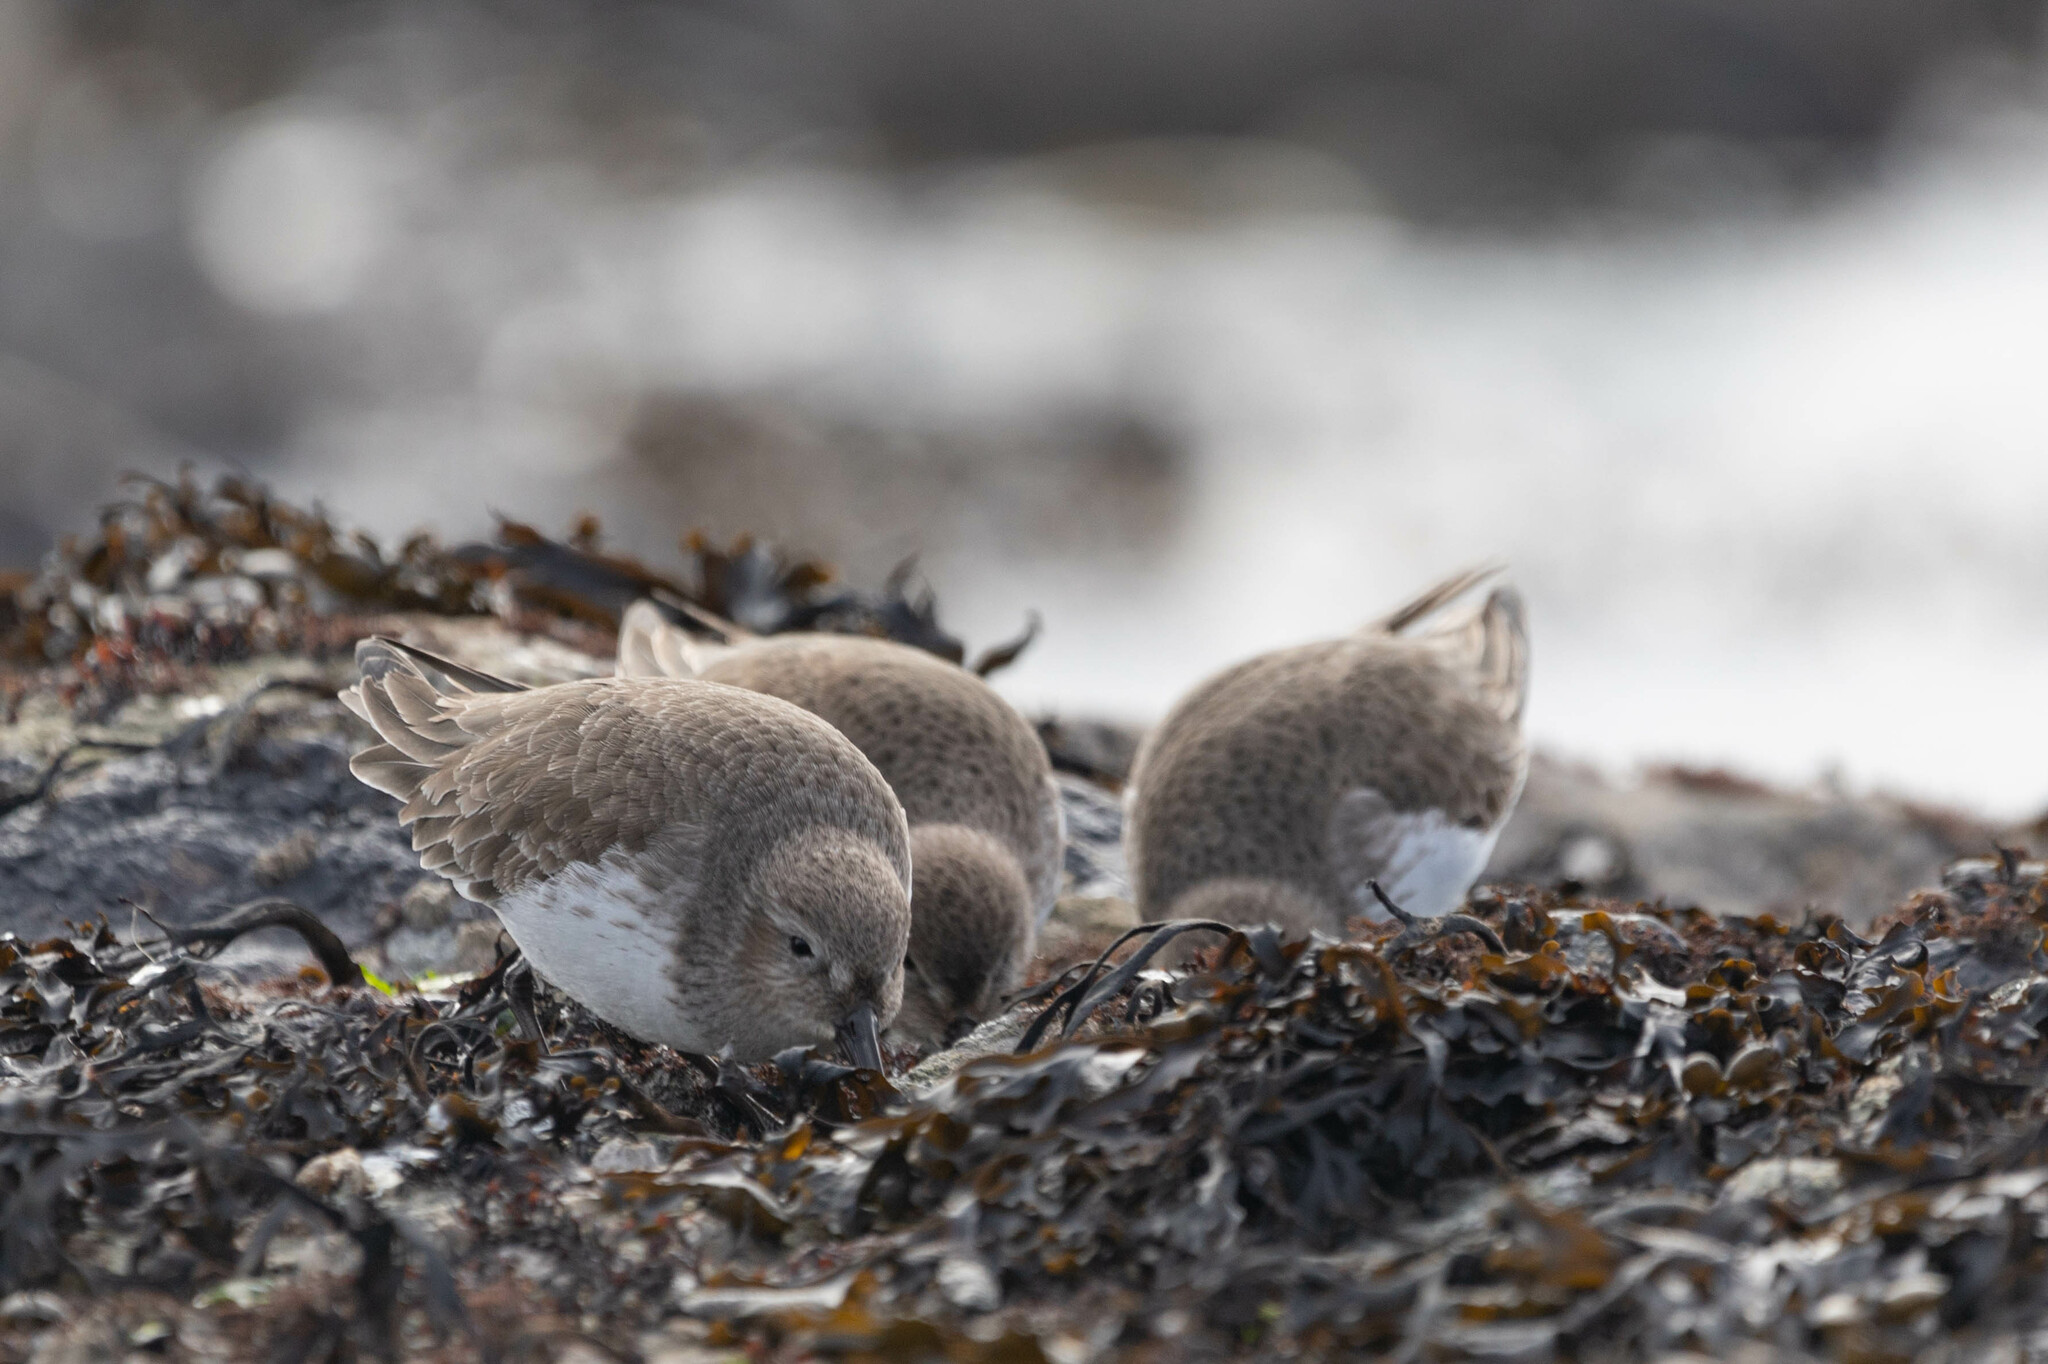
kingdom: Animalia
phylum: Chordata
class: Aves
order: Charadriiformes
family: Scolopacidae
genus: Calidris
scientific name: Calidris alpina
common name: Dunlin
